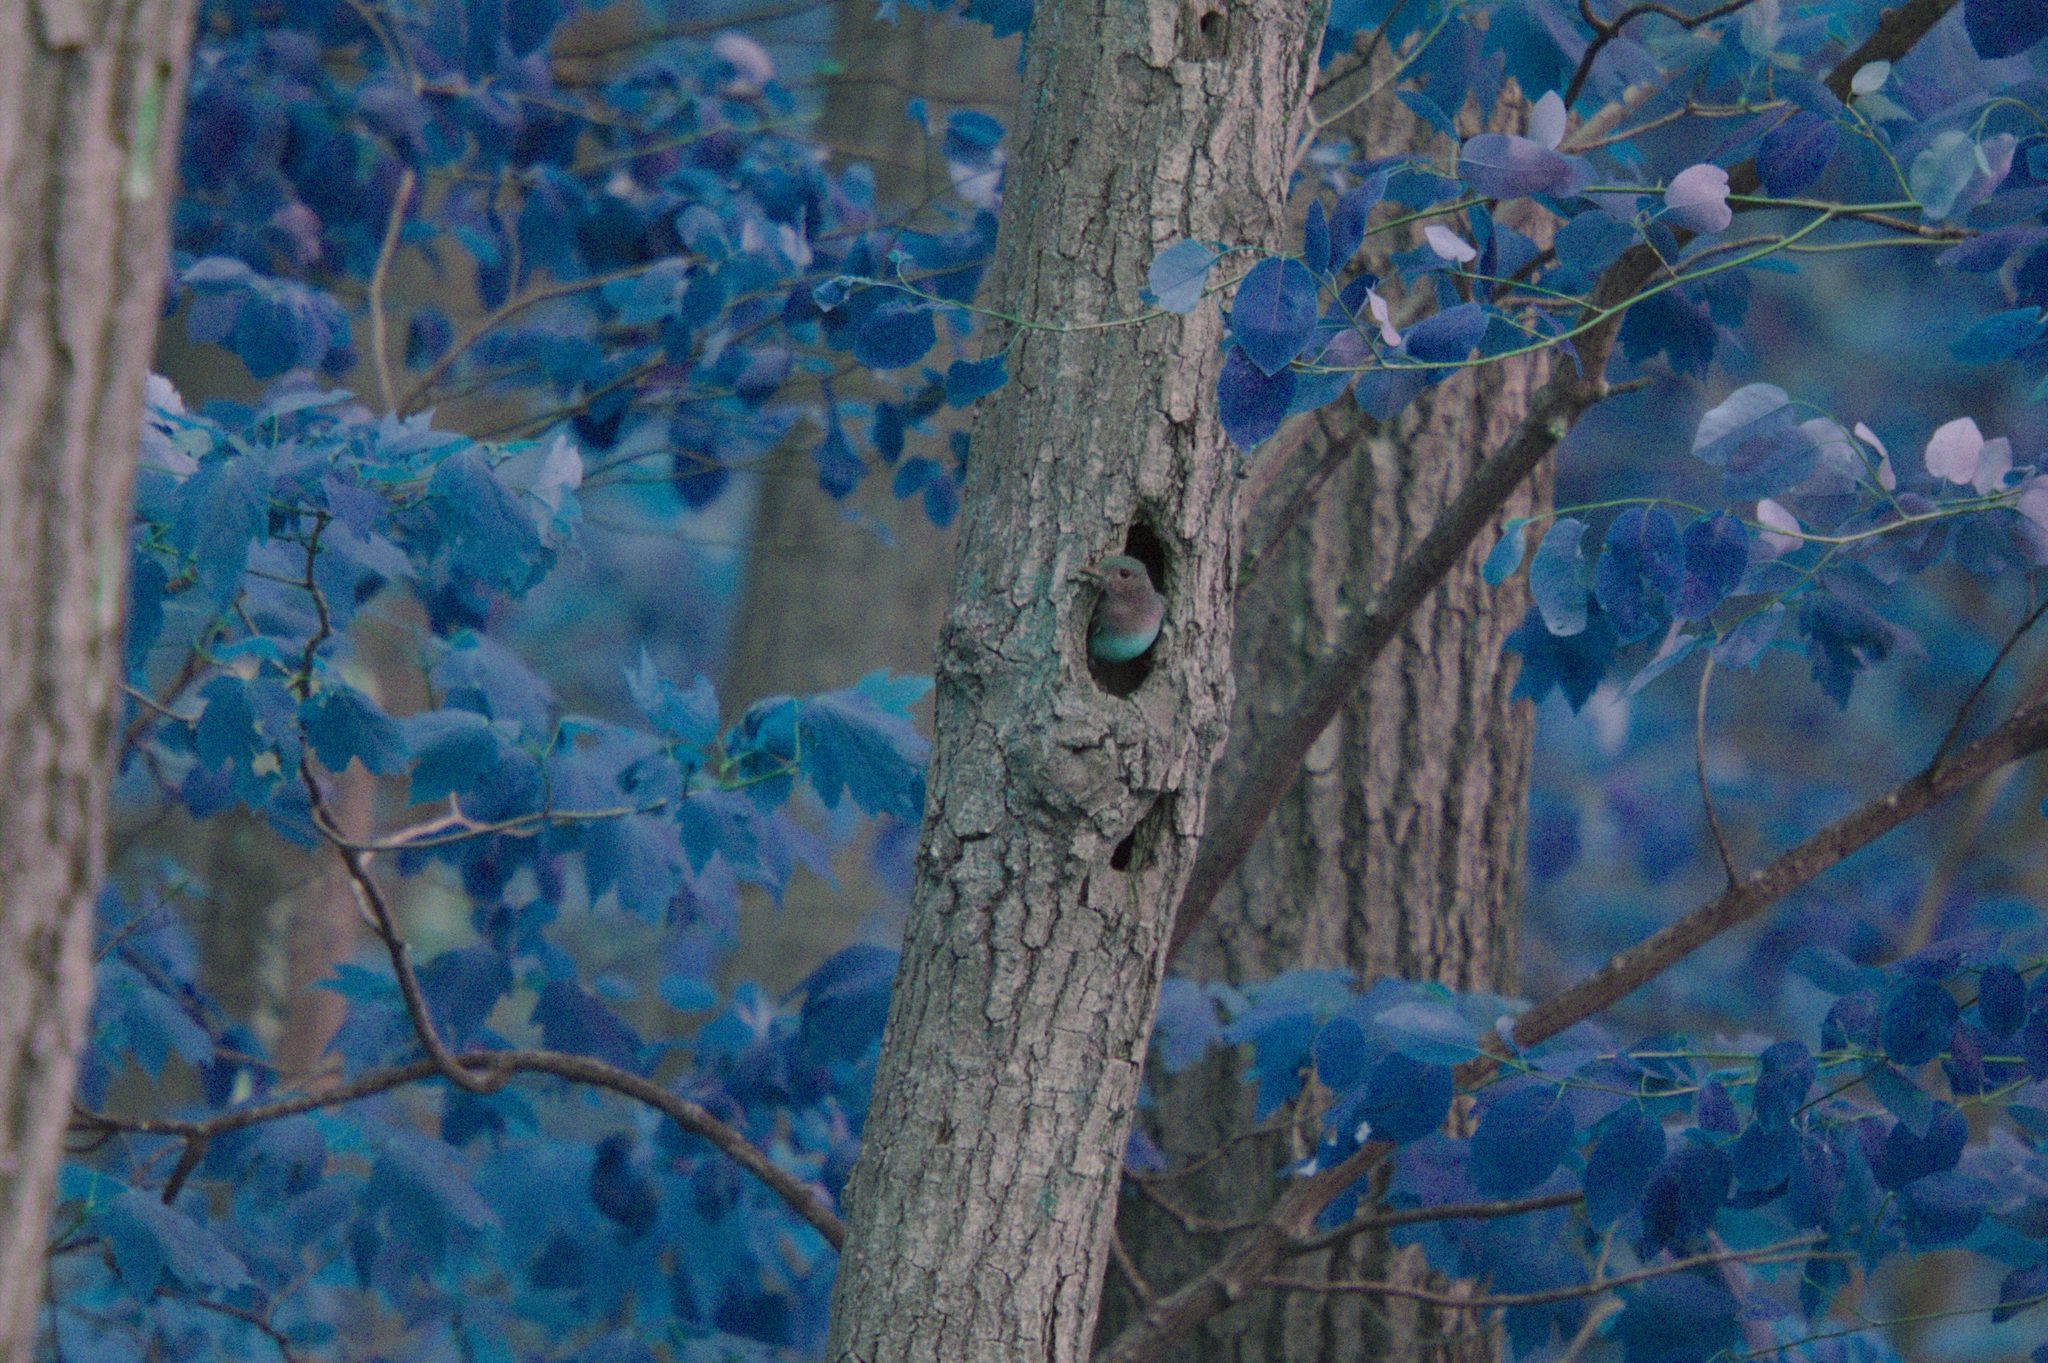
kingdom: Animalia
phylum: Chordata
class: Aves
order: Passeriformes
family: Tyrannidae
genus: Myiarchus
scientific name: Myiarchus crinitus
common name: Great crested flycatcher
